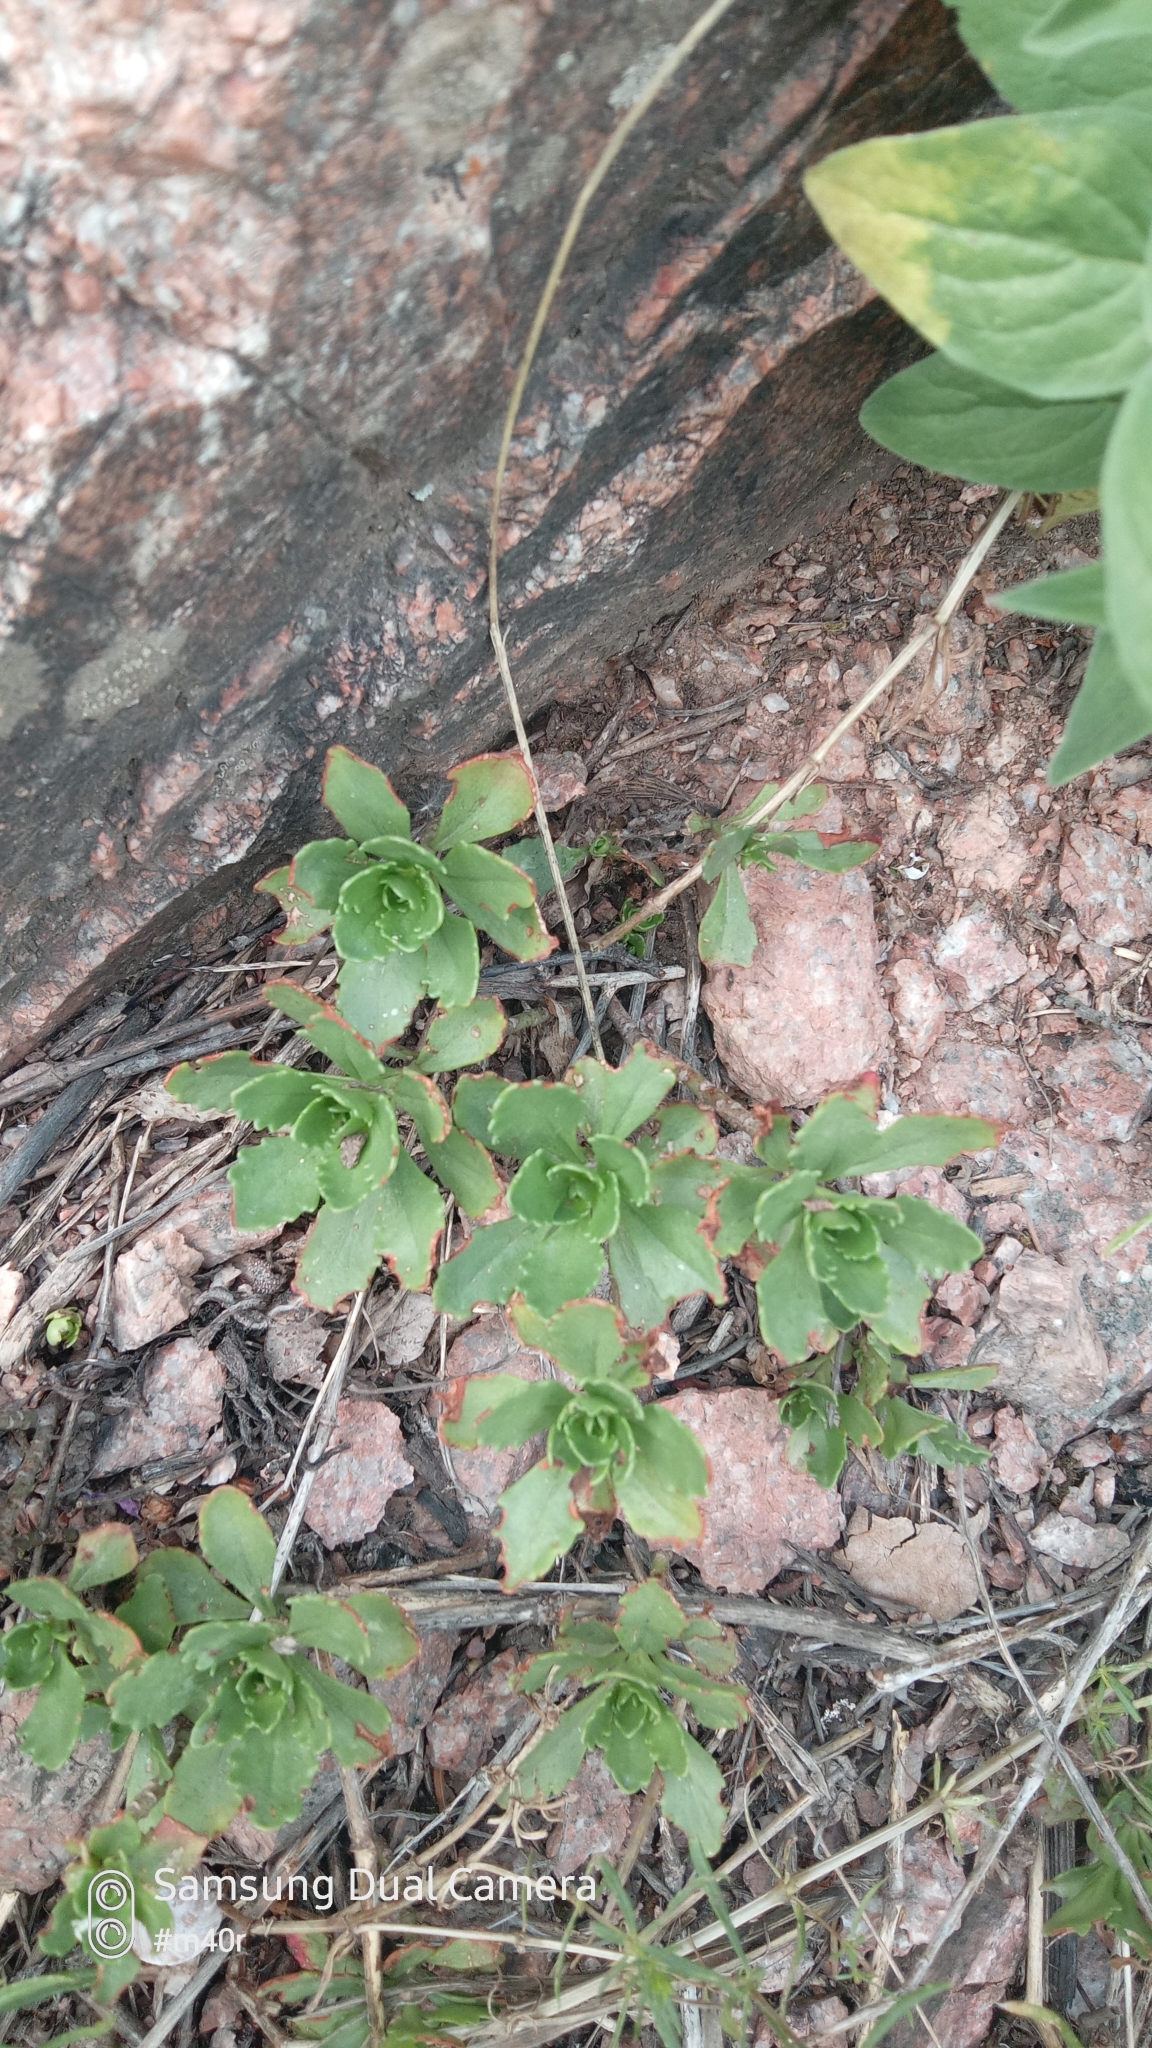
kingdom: Plantae
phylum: Tracheophyta
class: Magnoliopsida
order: Saxifragales
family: Crassulaceae
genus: Phedimus
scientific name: Phedimus hybridus
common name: Hybrid stonecrop
